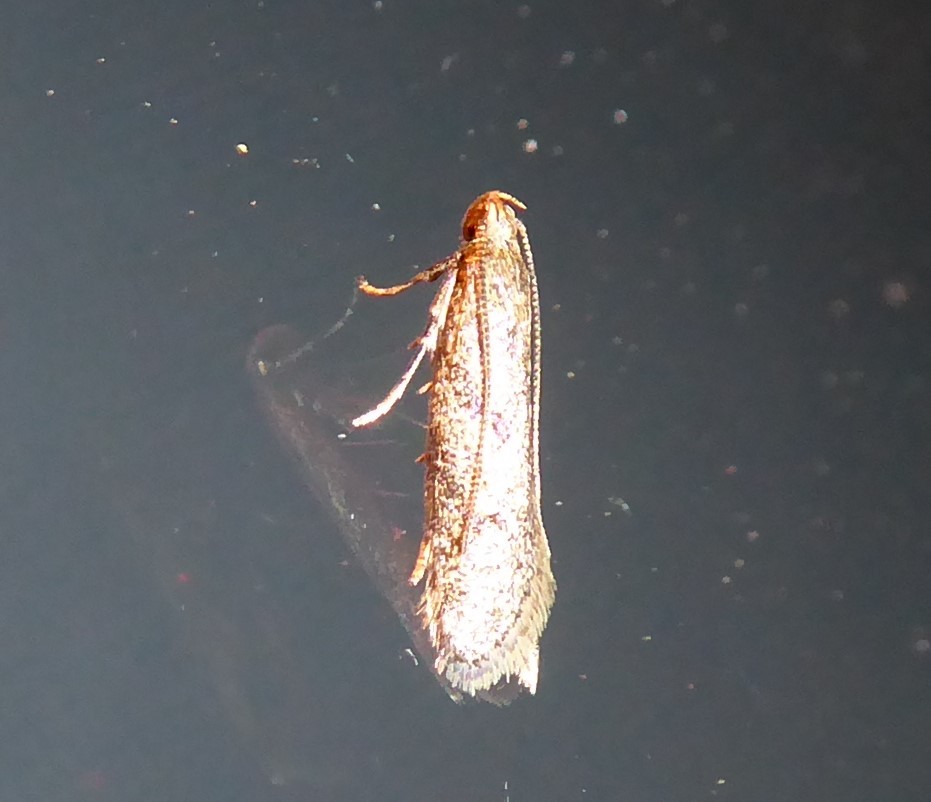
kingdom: Animalia
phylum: Arthropoda
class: Insecta
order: Lepidoptera
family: Oecophoridae
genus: Gymnobathra
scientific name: Gymnobathra tholodella
